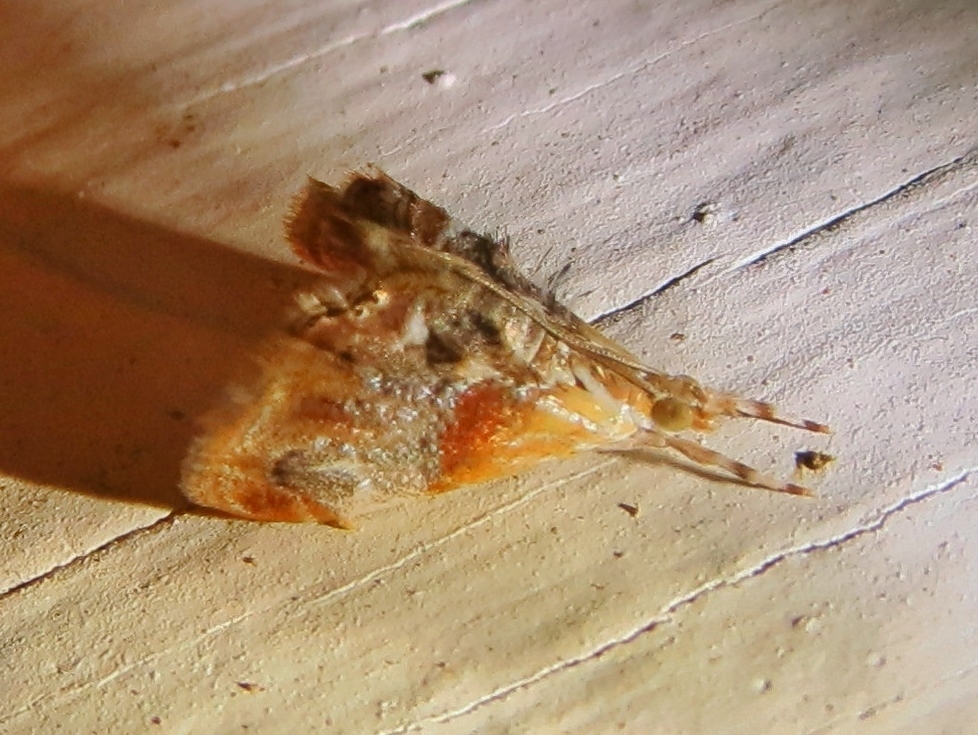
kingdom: Animalia
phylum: Arthropoda
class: Insecta
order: Lepidoptera
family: Crambidae
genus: Dicymolomia
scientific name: Dicymolomia julianalis
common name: Julia's dicymolomia moth
